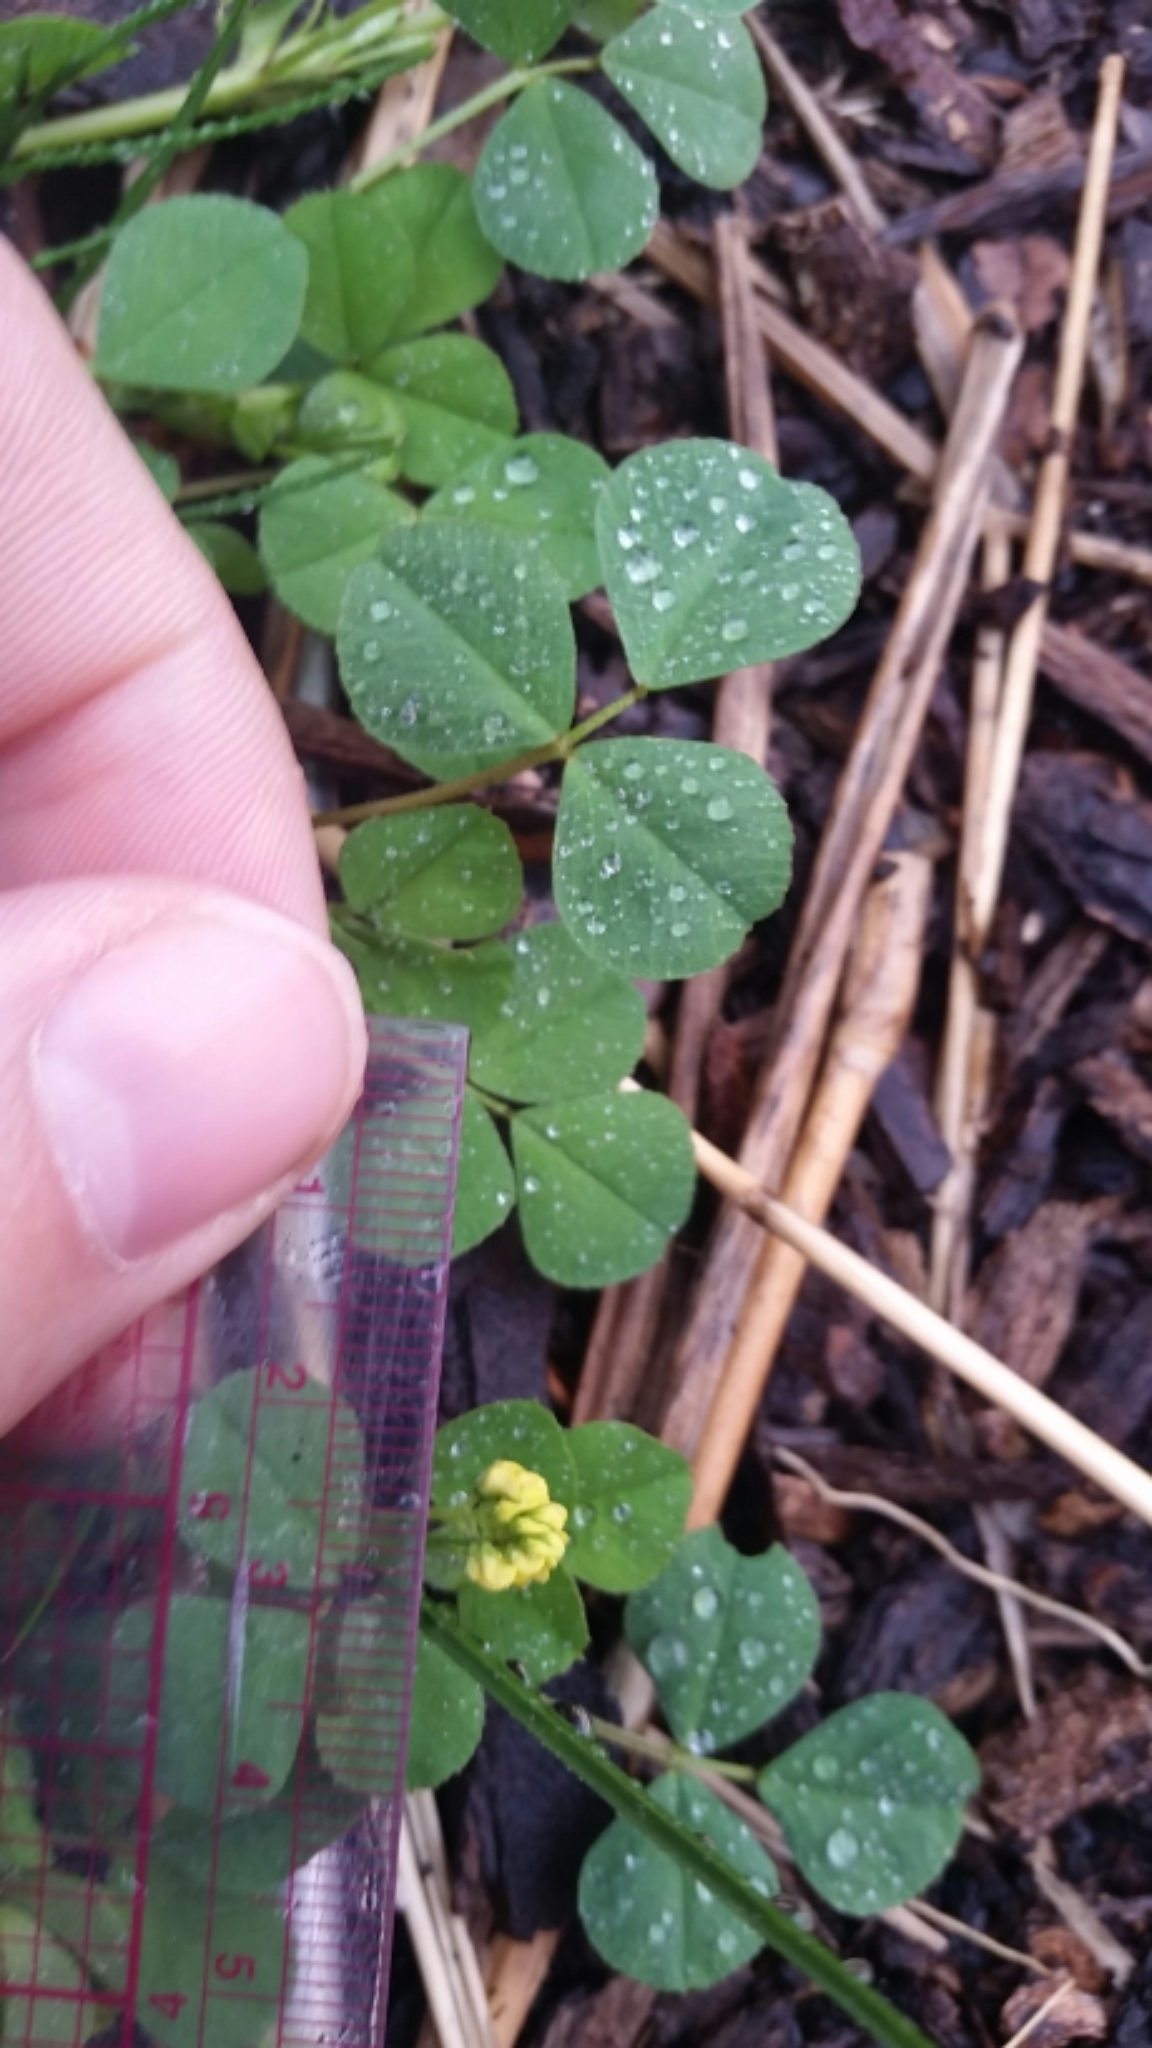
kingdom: Plantae
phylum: Tracheophyta
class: Magnoliopsida
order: Fabales
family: Fabaceae
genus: Medicago
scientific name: Medicago lupulina
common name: Black medick
